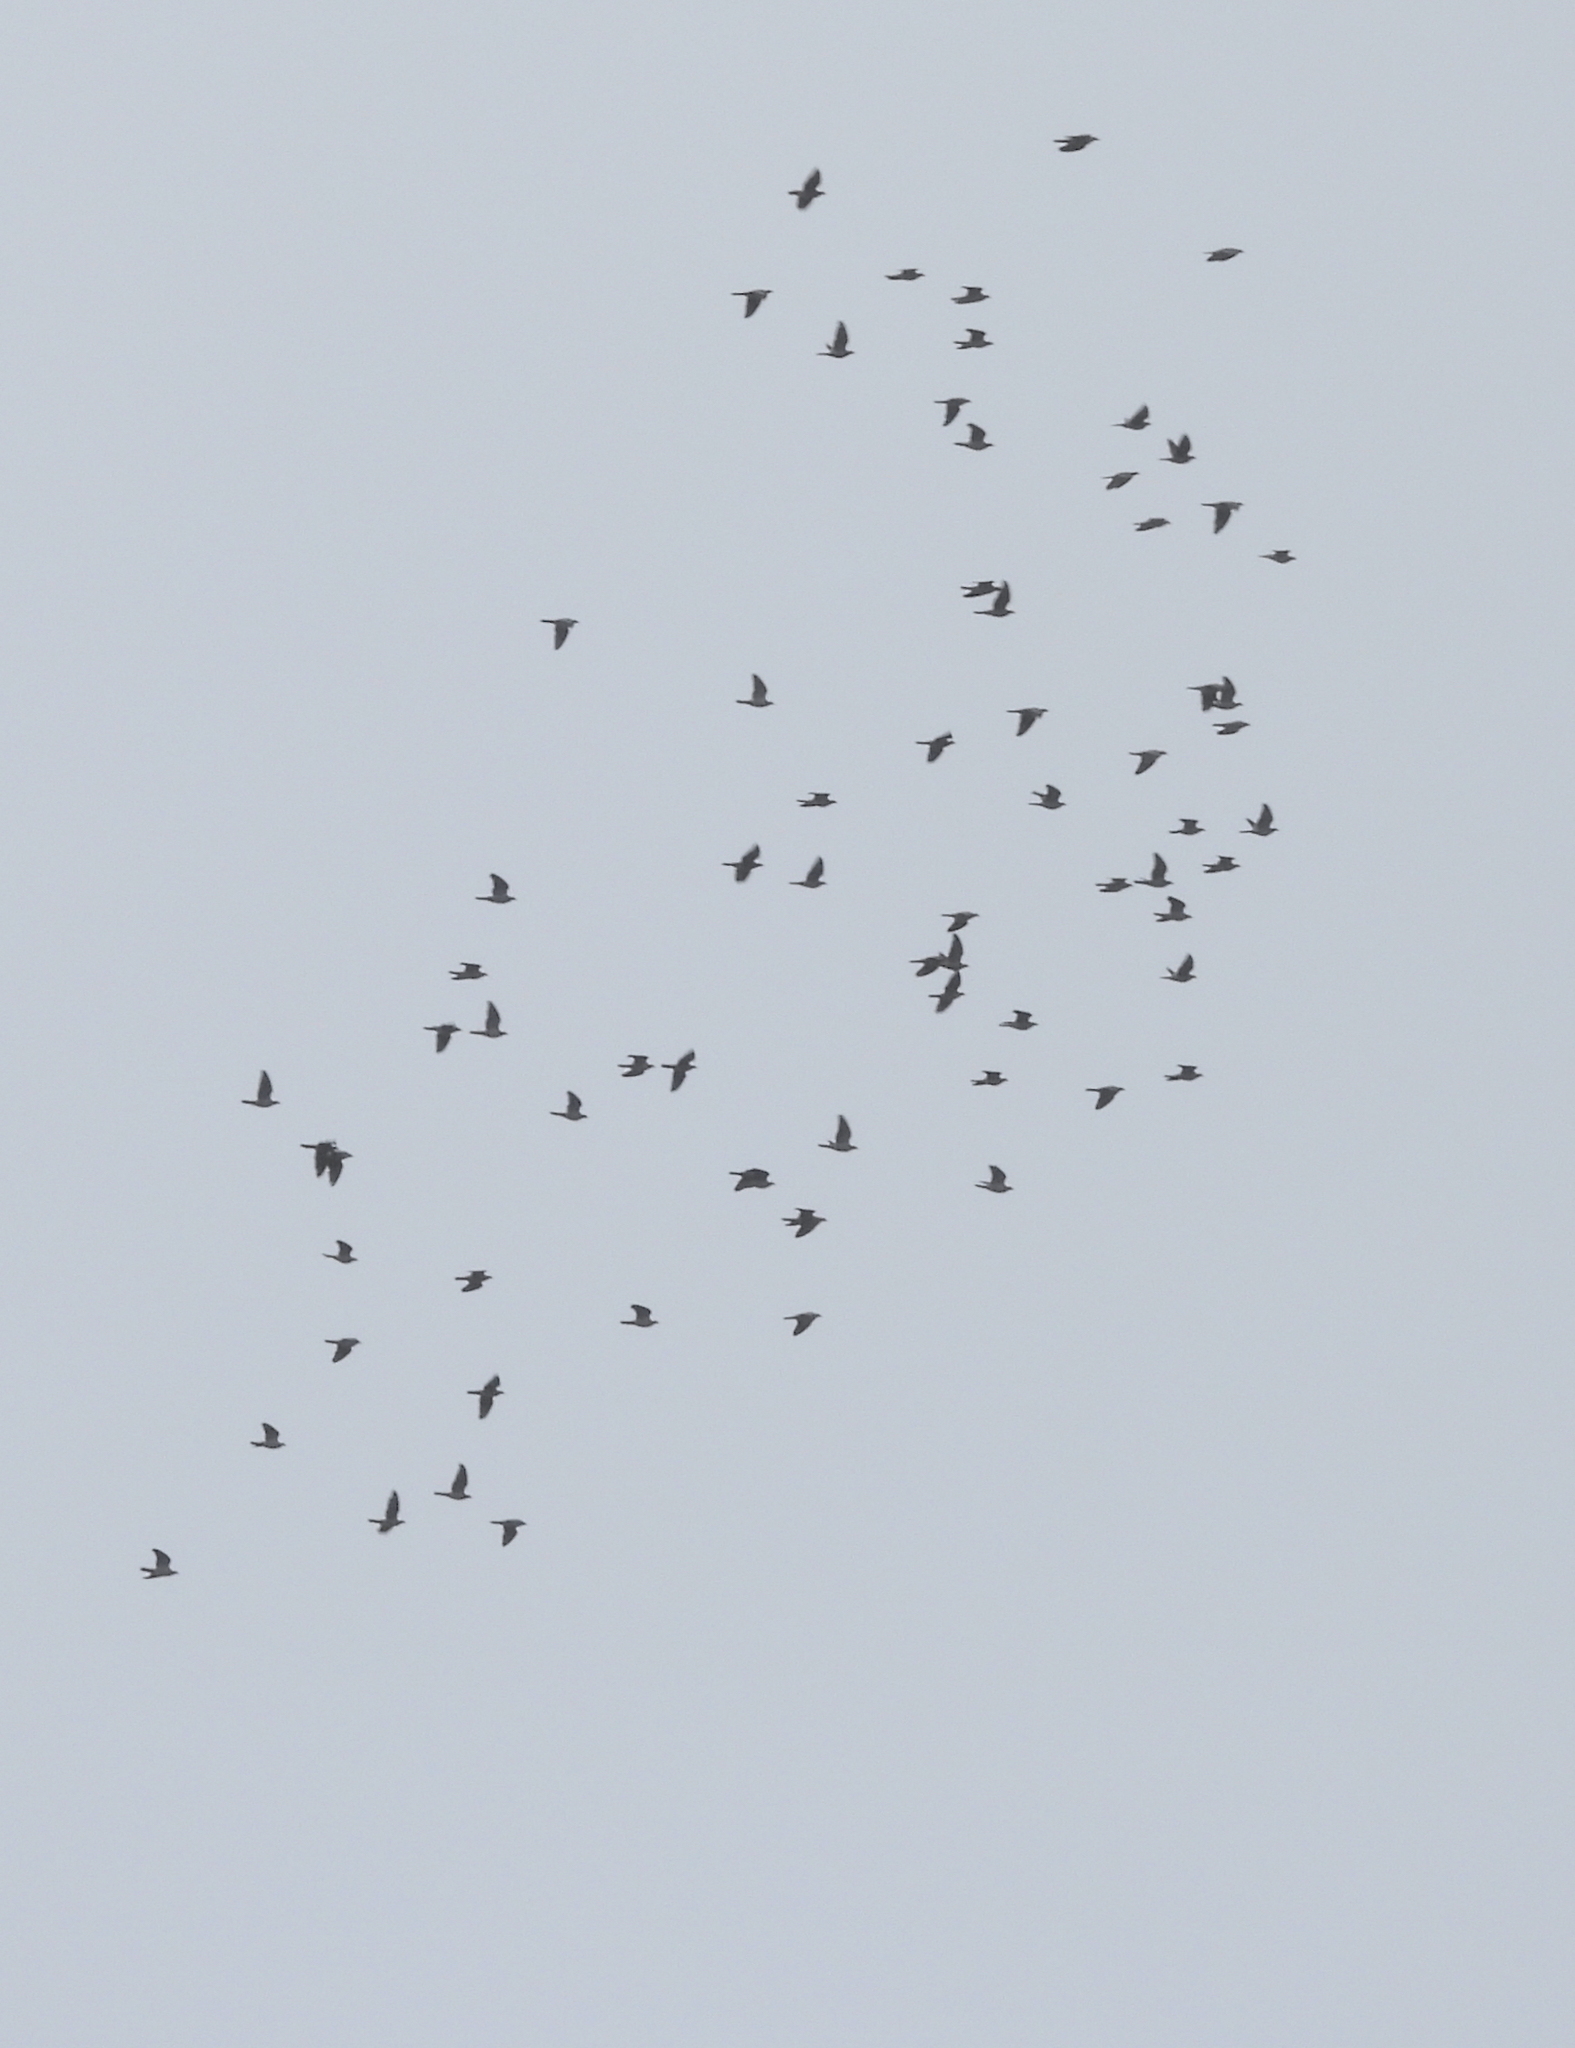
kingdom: Animalia
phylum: Chordata
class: Aves
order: Columbiformes
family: Columbidae
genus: Patagioenas
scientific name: Patagioenas fasciata
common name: Band-tailed pigeon
